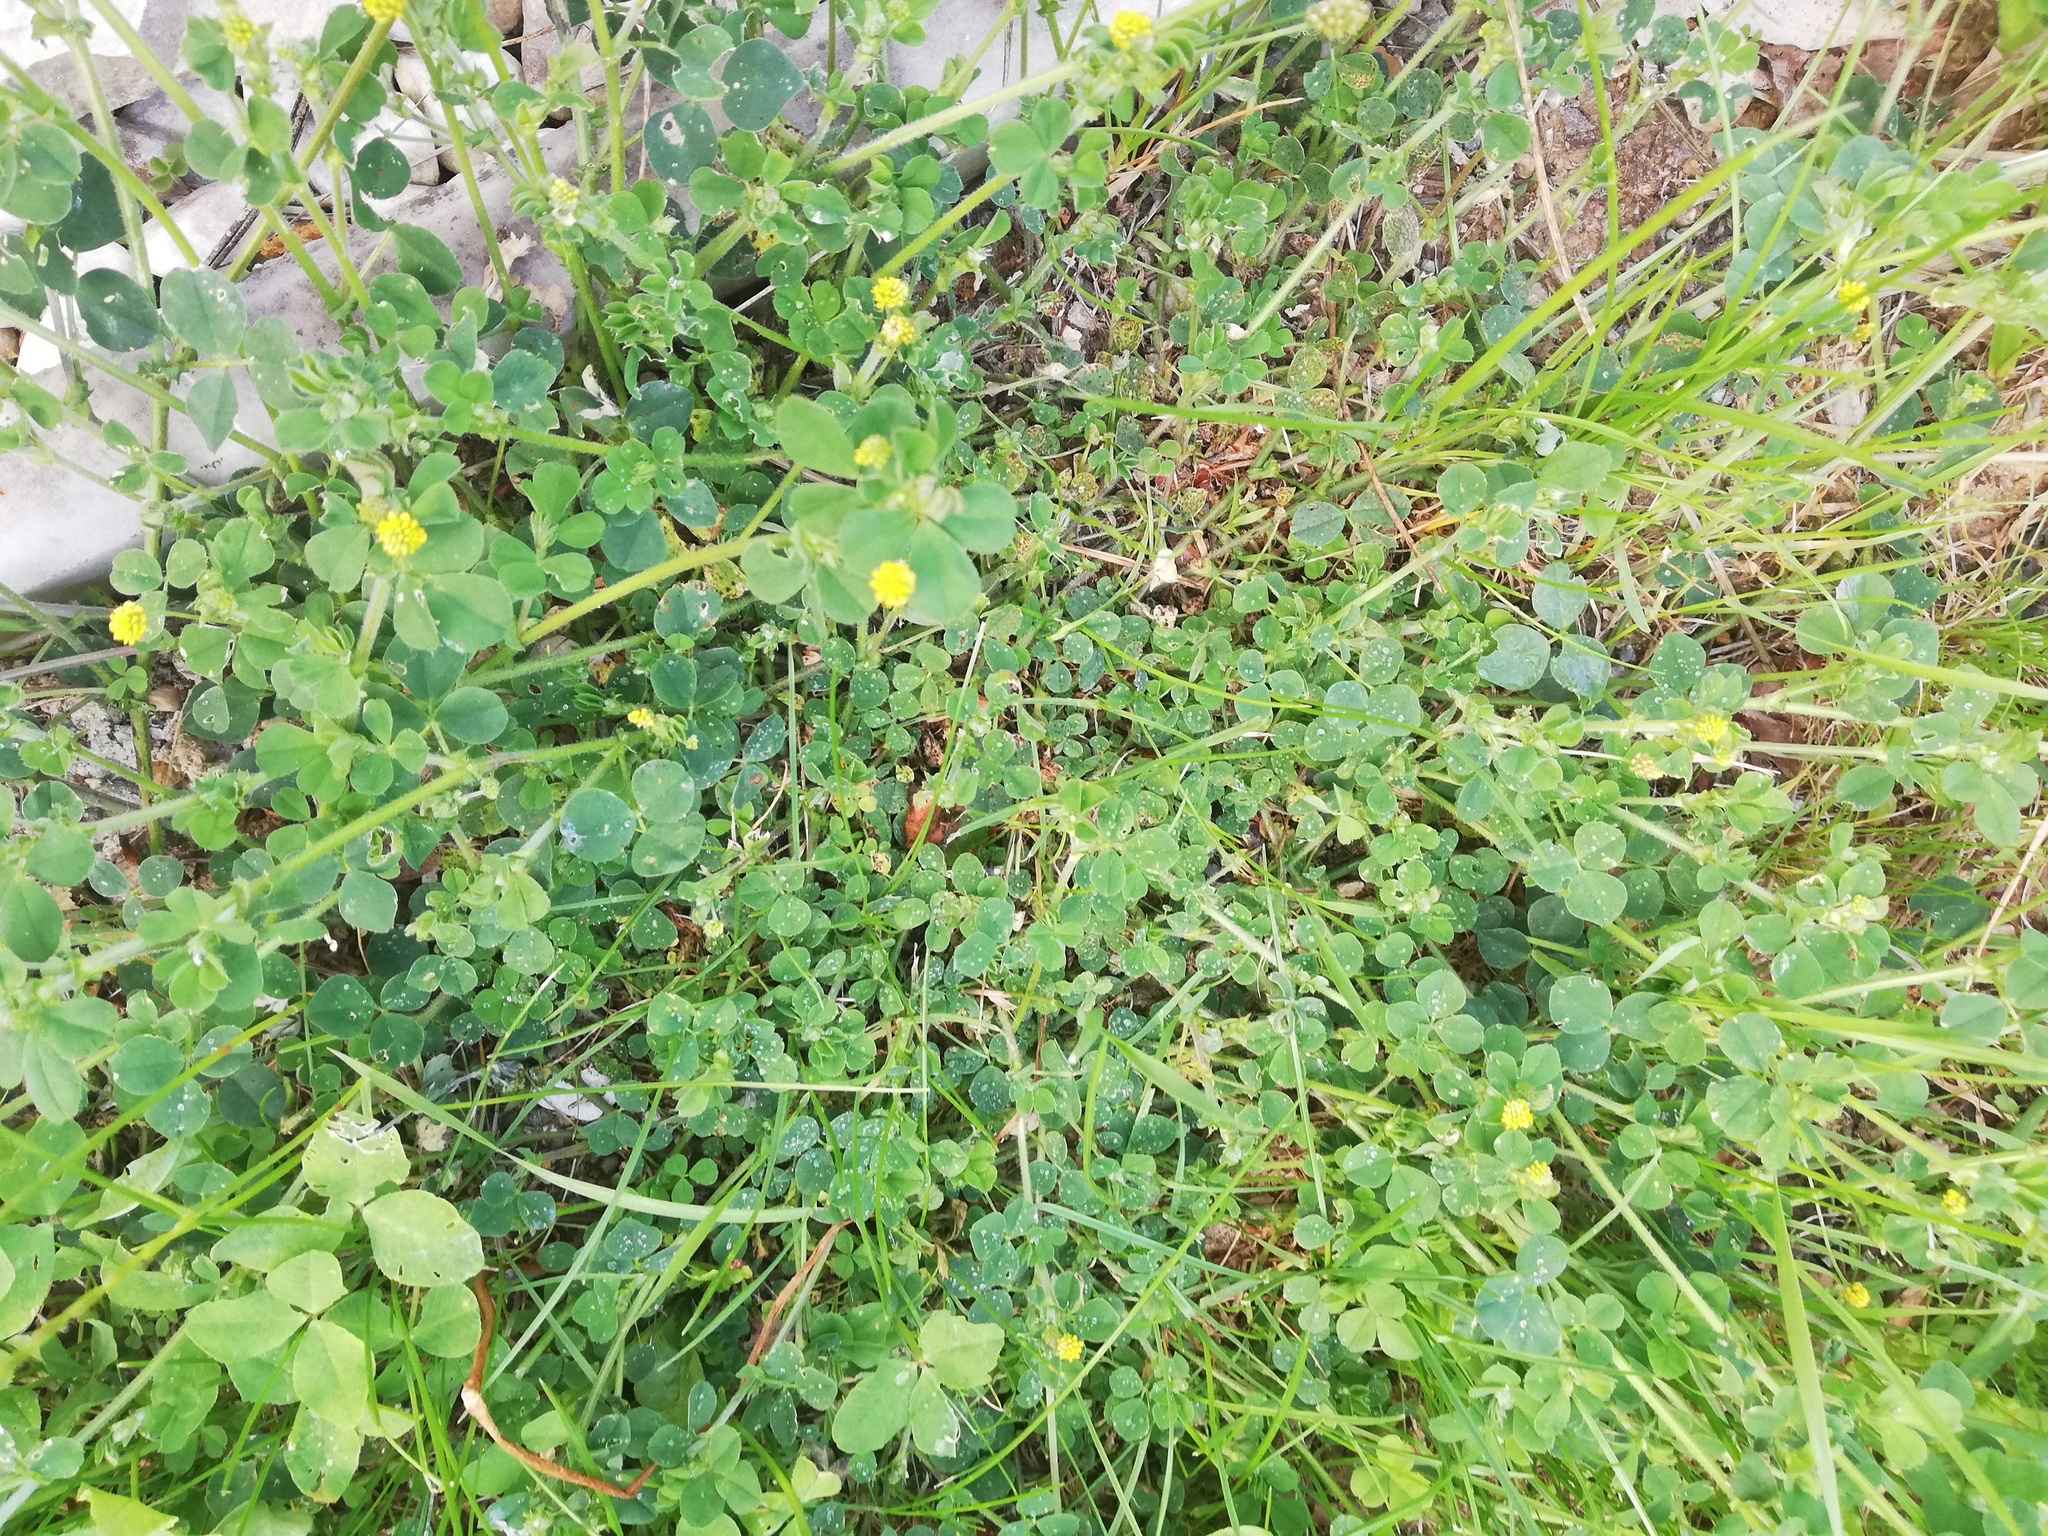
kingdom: Plantae
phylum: Tracheophyta
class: Magnoliopsida
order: Fabales
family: Fabaceae
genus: Medicago
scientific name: Medicago lupulina
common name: Black medick
